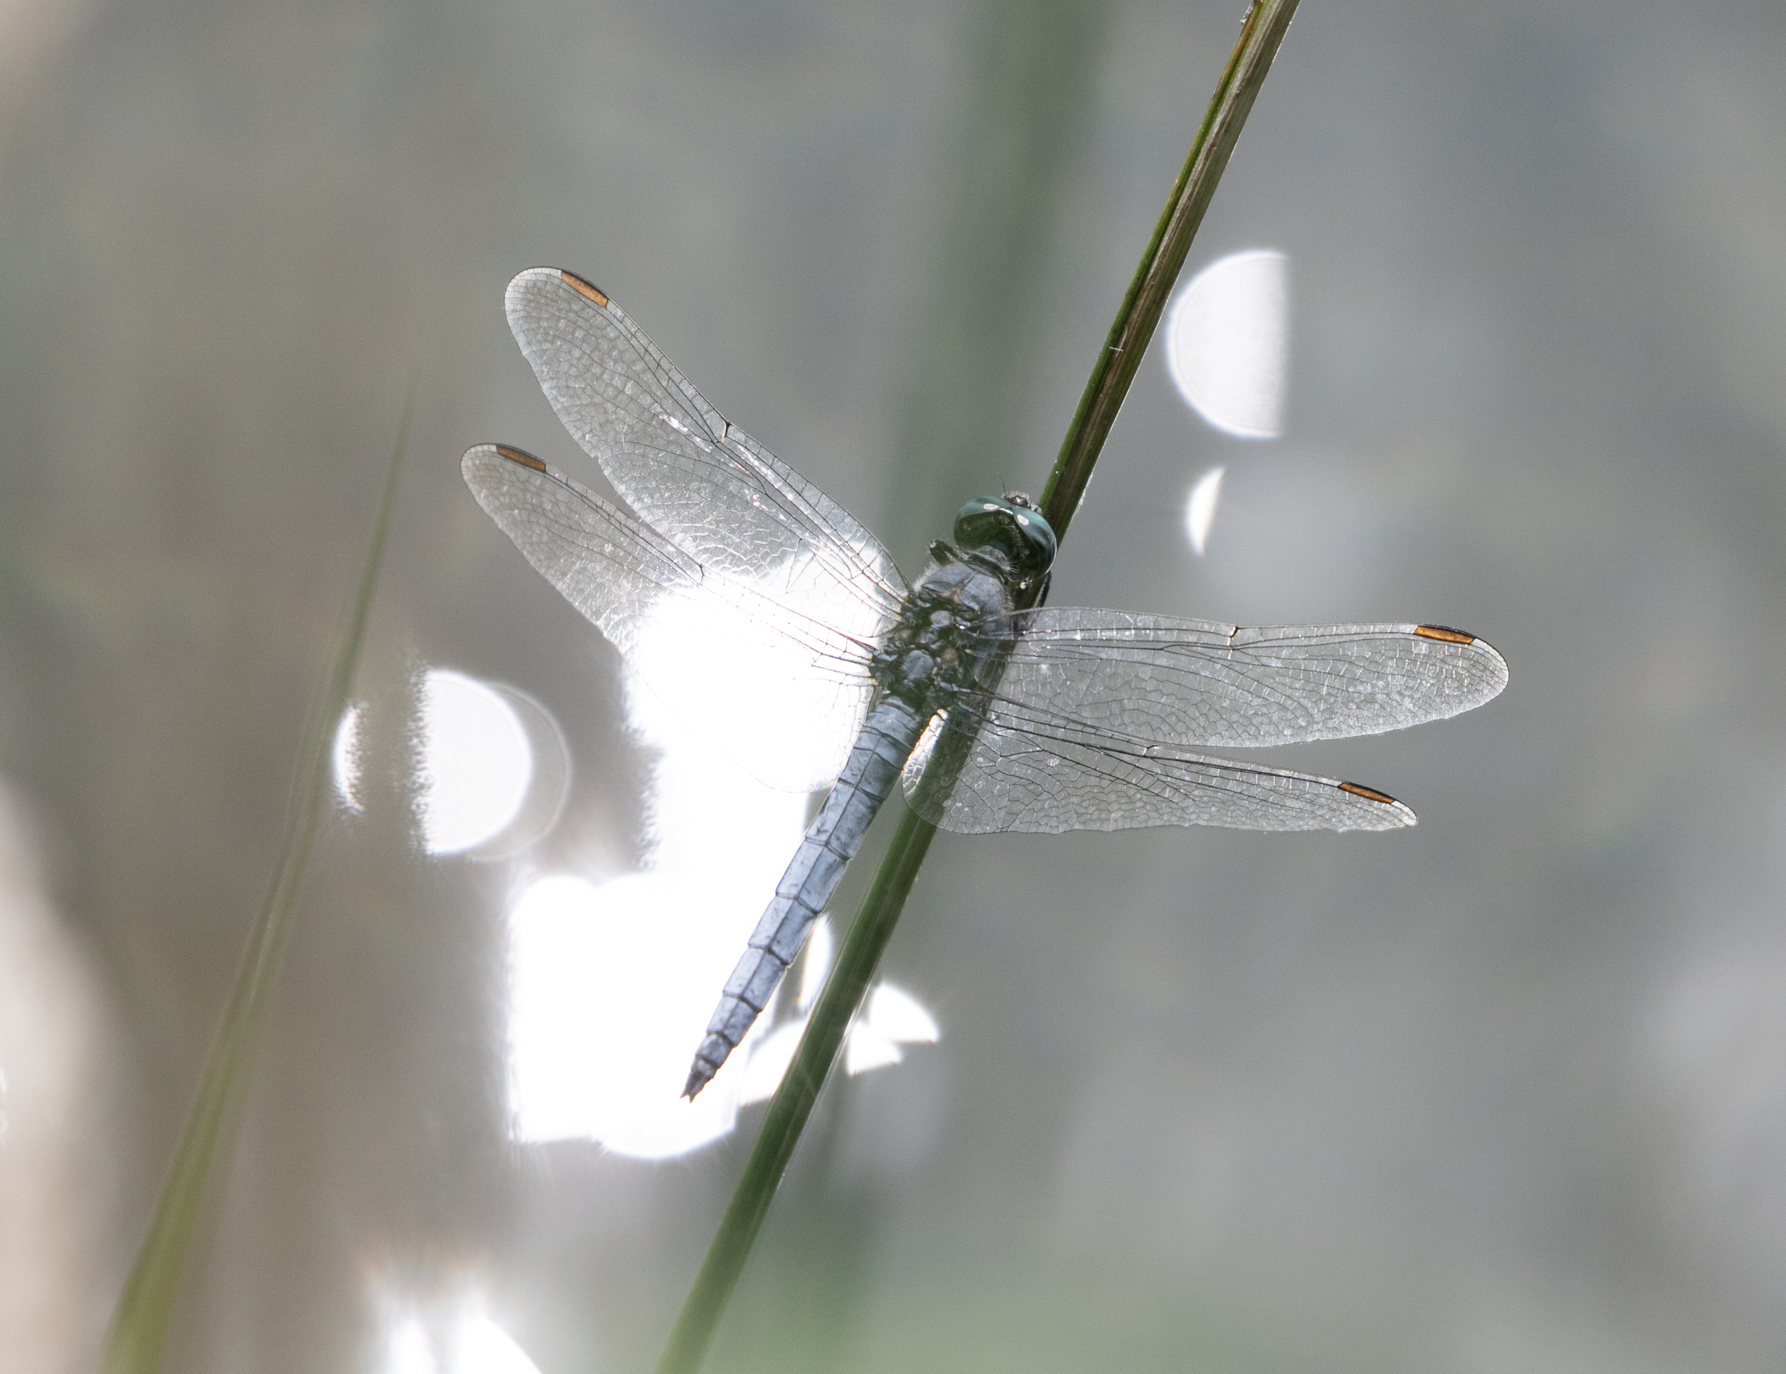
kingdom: Animalia
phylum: Arthropoda
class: Insecta
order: Odonata
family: Libellulidae
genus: Orthetrum
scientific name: Orthetrum coerulescens
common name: Keeled skimmer
